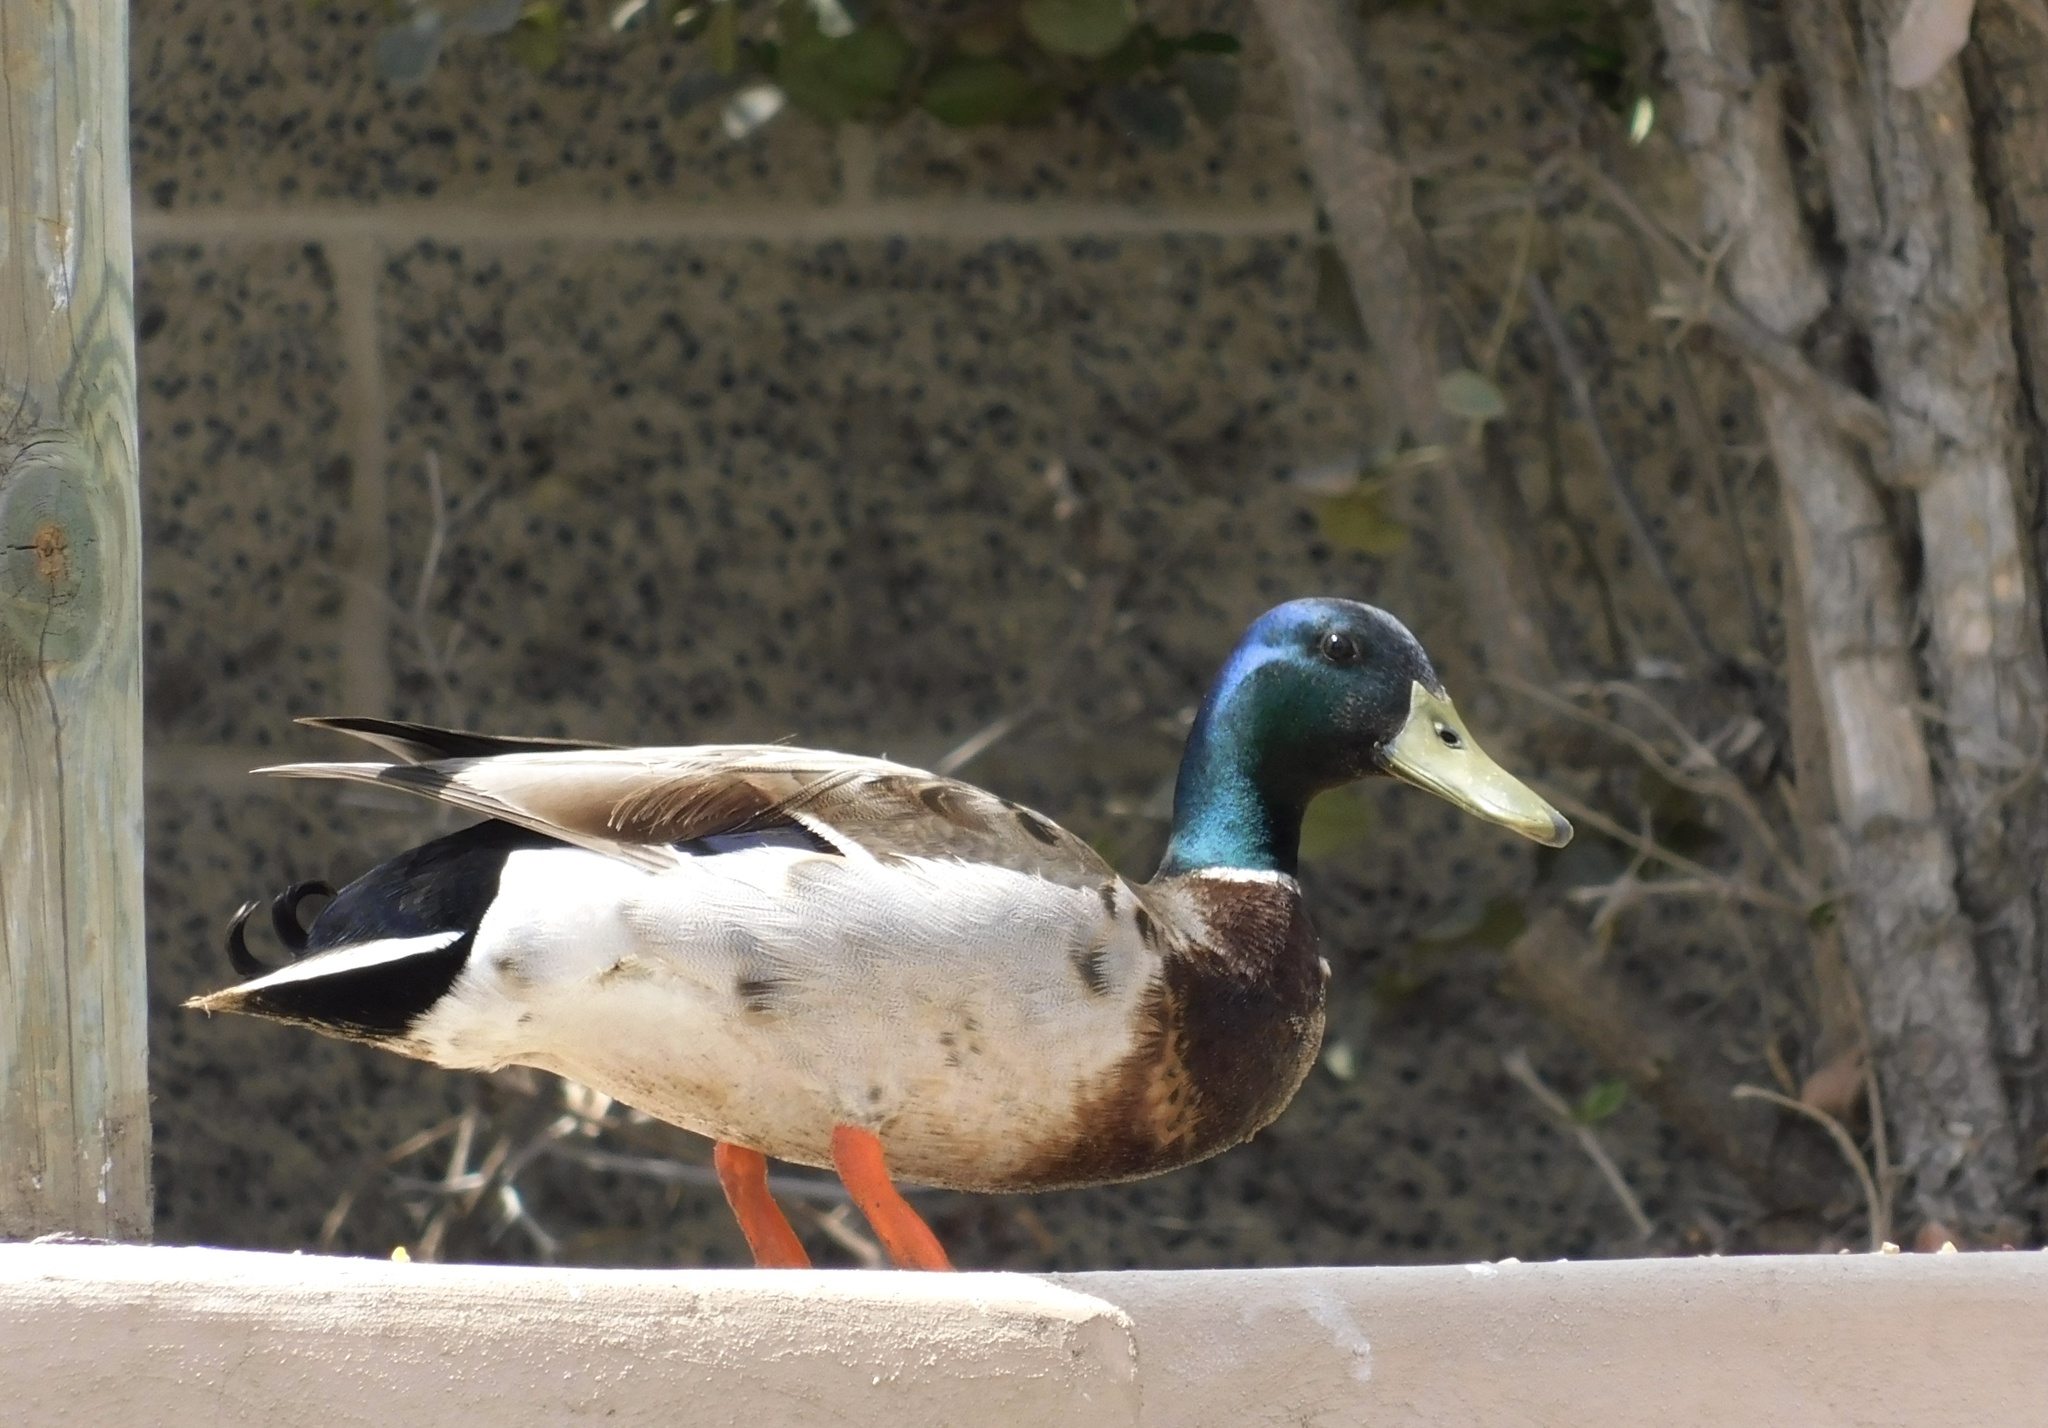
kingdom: Animalia
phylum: Chordata
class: Aves
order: Anseriformes
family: Anatidae
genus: Anas
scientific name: Anas platyrhynchos
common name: Mallard
